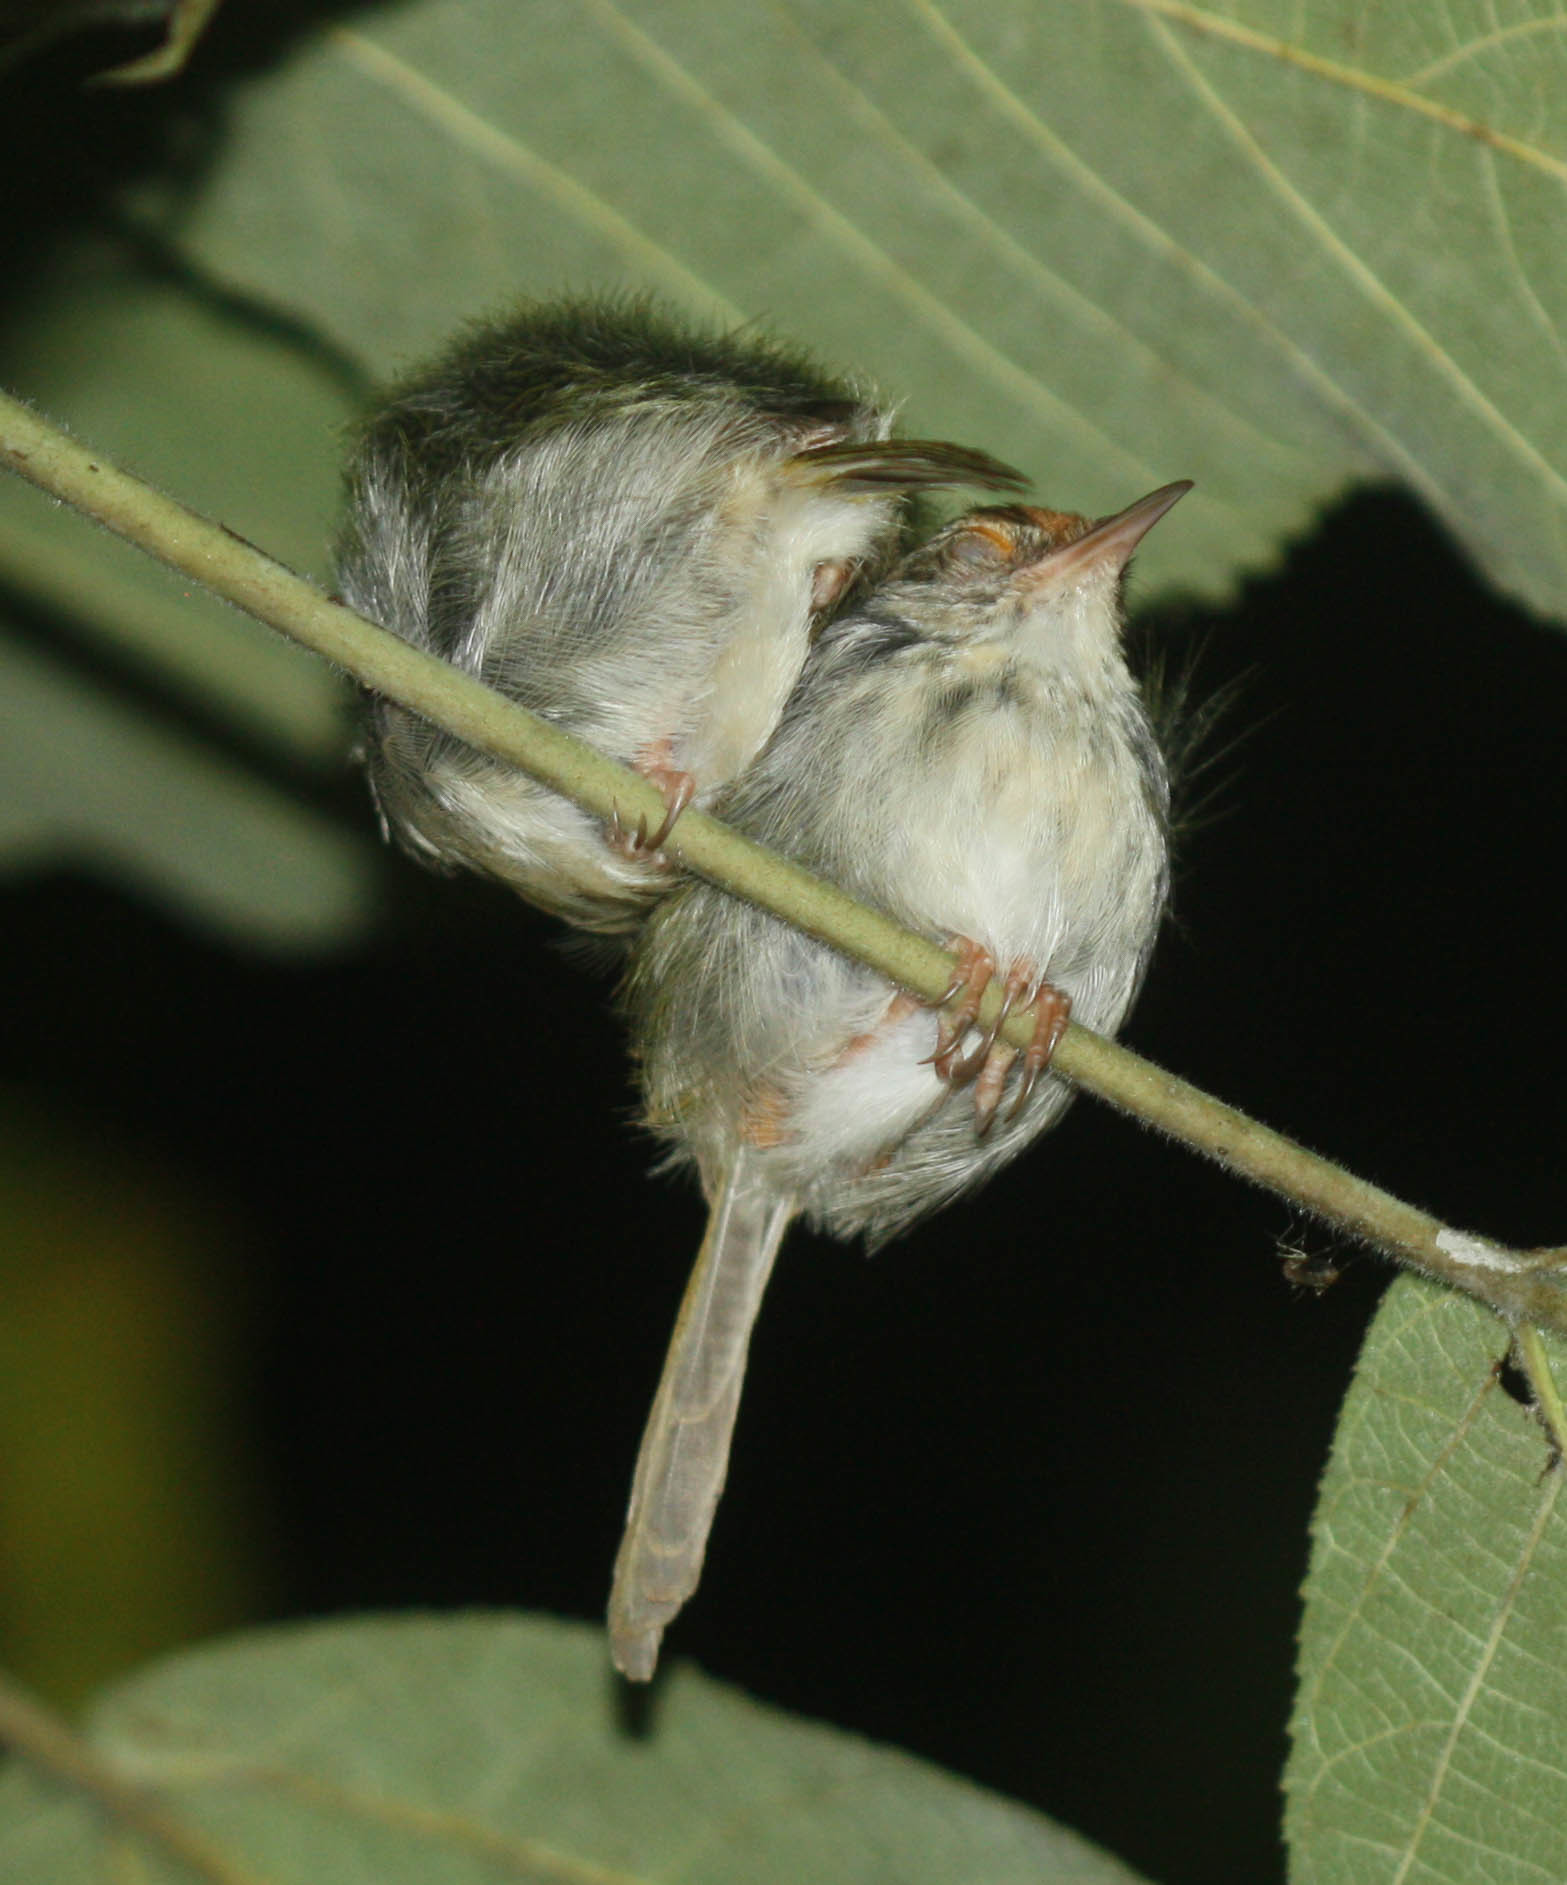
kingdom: Animalia
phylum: Chordata
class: Aves
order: Passeriformes
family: Cisticolidae
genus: Orthotomus
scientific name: Orthotomus sutorius
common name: Common tailorbird
